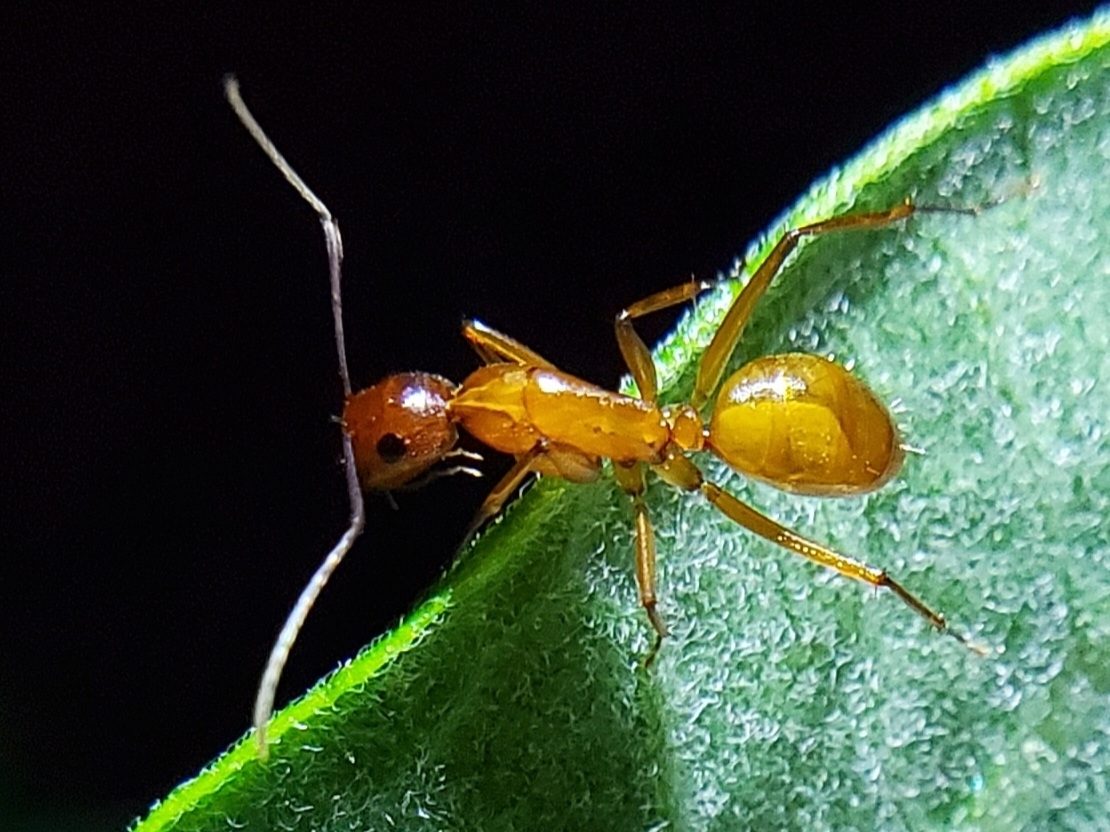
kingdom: Animalia
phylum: Arthropoda
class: Insecta
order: Hymenoptera
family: Formicidae
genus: Camponotus
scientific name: Camponotus castaneus
